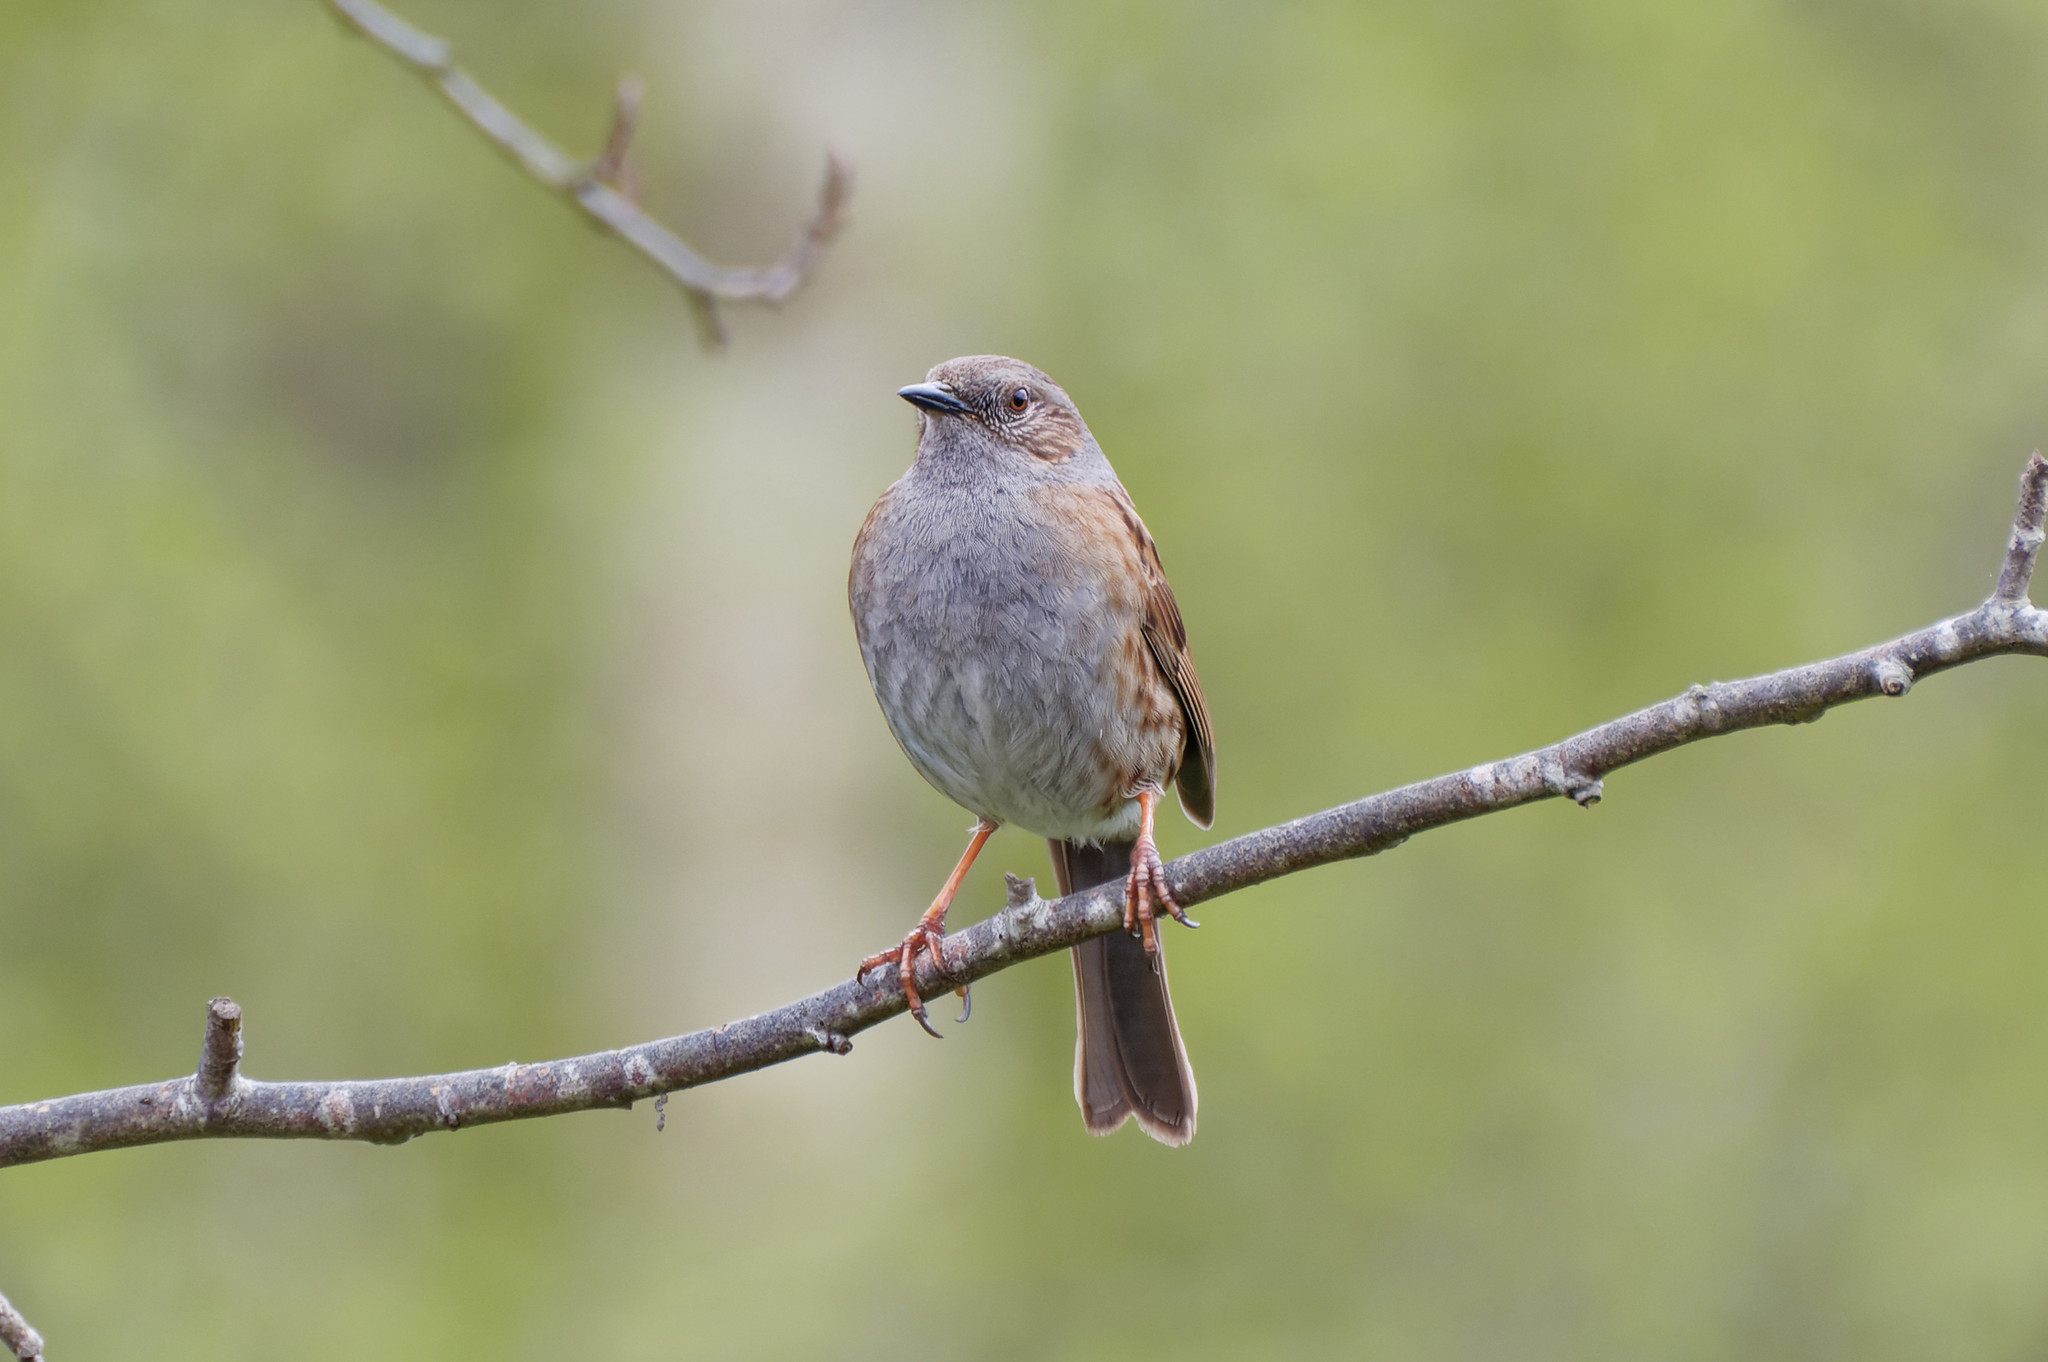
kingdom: Animalia
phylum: Chordata
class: Aves
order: Passeriformes
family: Prunellidae
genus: Prunella
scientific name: Prunella modularis
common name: Dunnock
